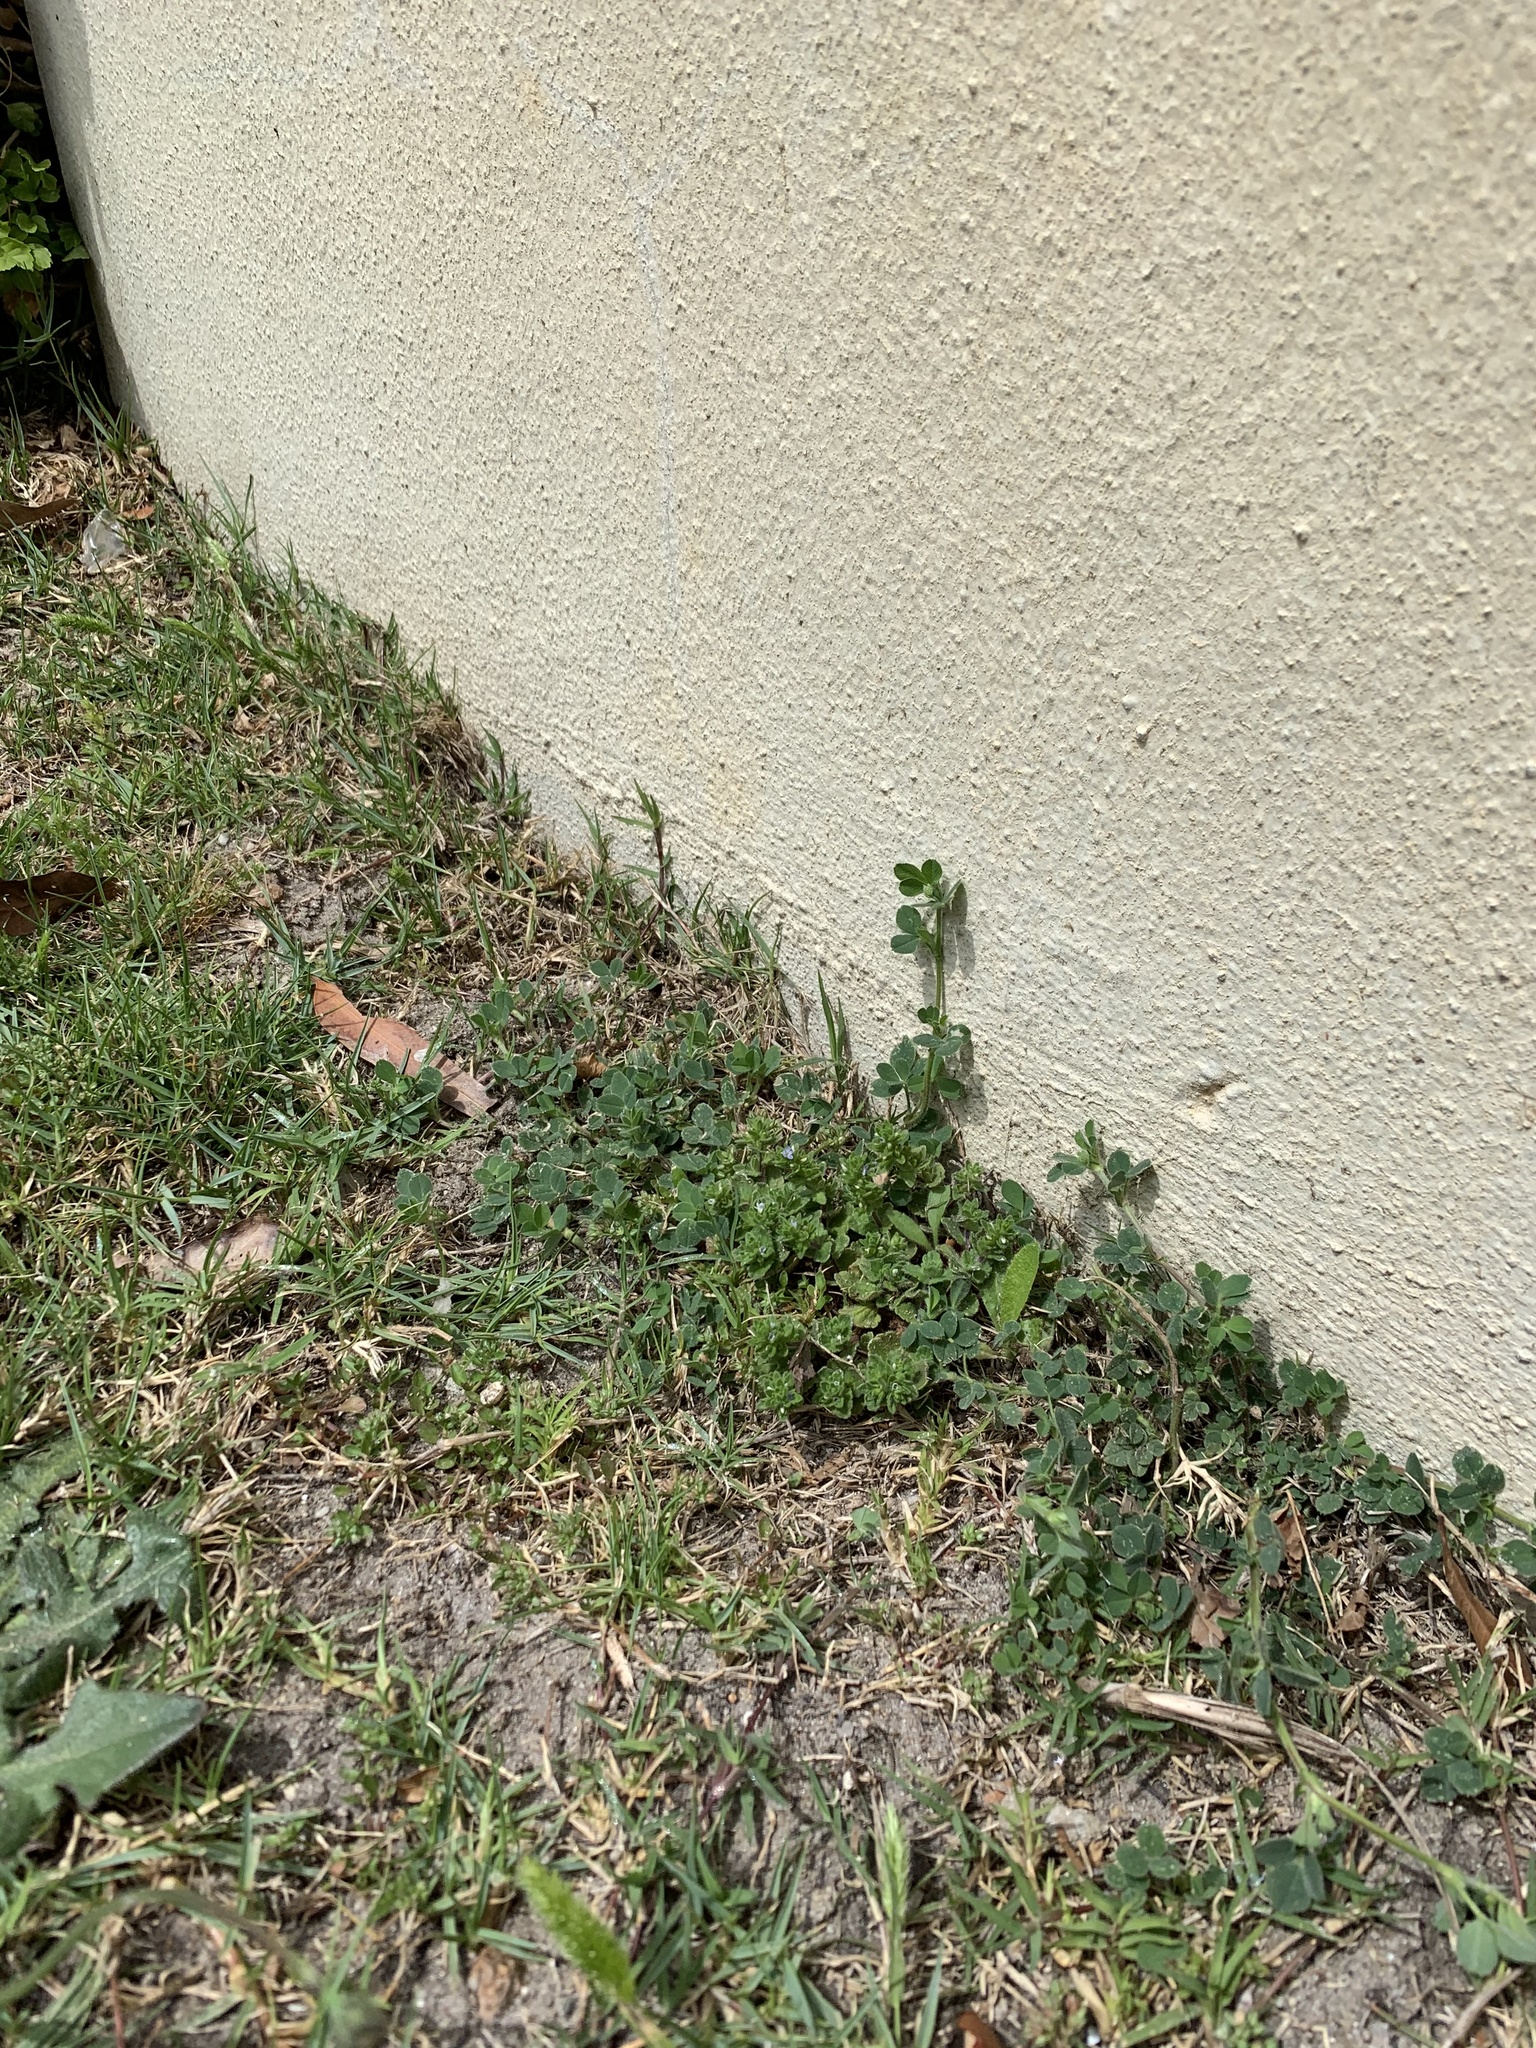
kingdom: Plantae
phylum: Tracheophyta
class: Magnoliopsida
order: Lamiales
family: Plantaginaceae
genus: Veronica
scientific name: Veronica arvensis
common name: Corn speedwell
